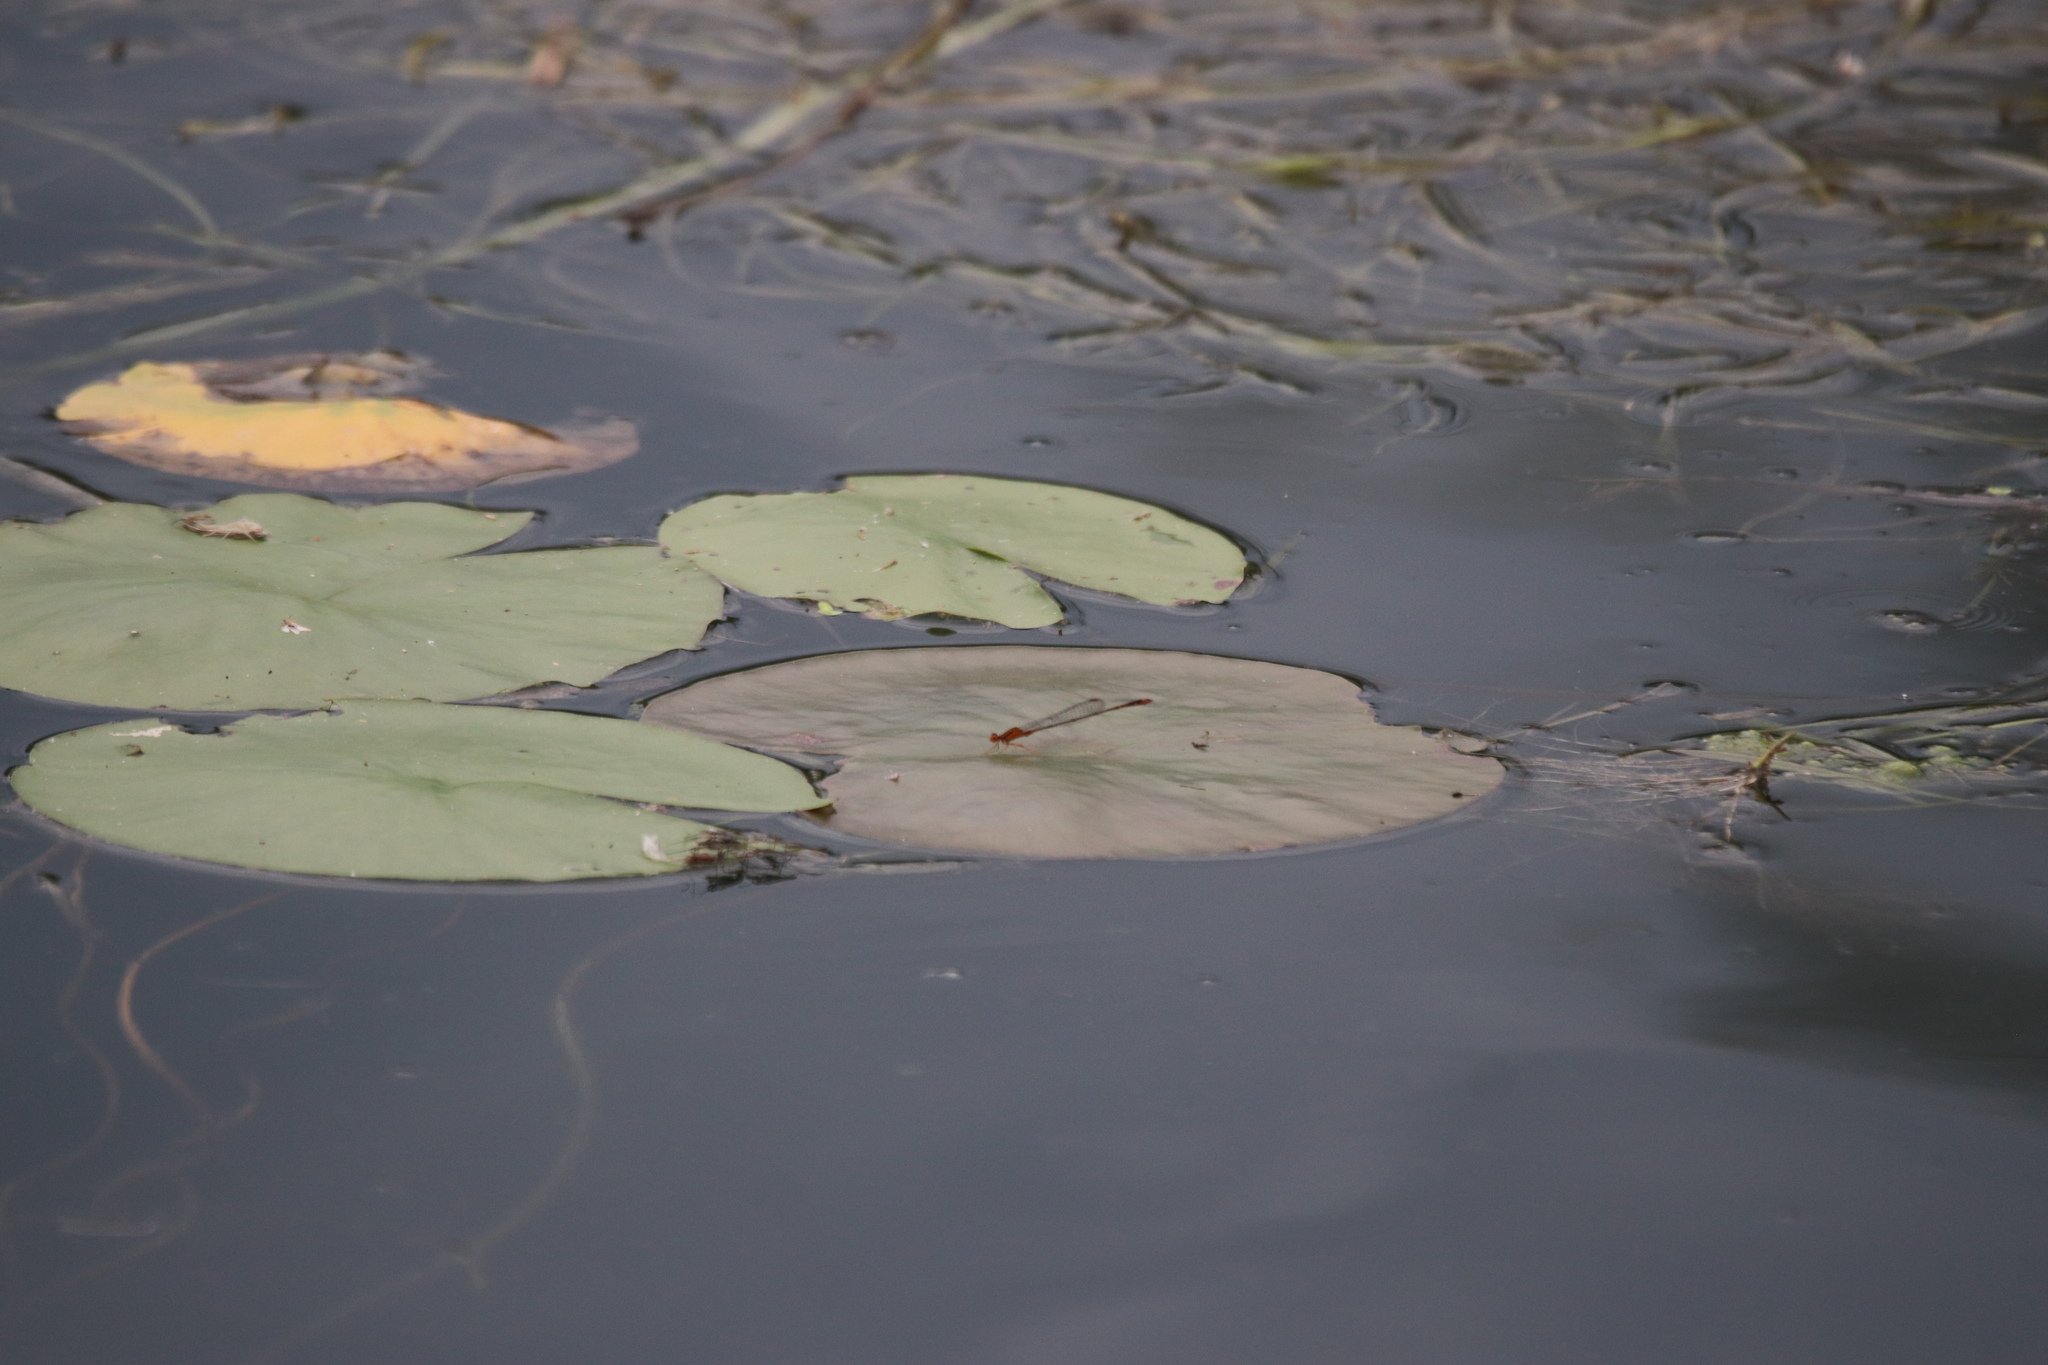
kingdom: Animalia
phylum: Arthropoda
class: Insecta
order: Odonata
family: Coenagrionidae
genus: Enallagma
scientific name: Enallagma signatum
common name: Orange bluet
